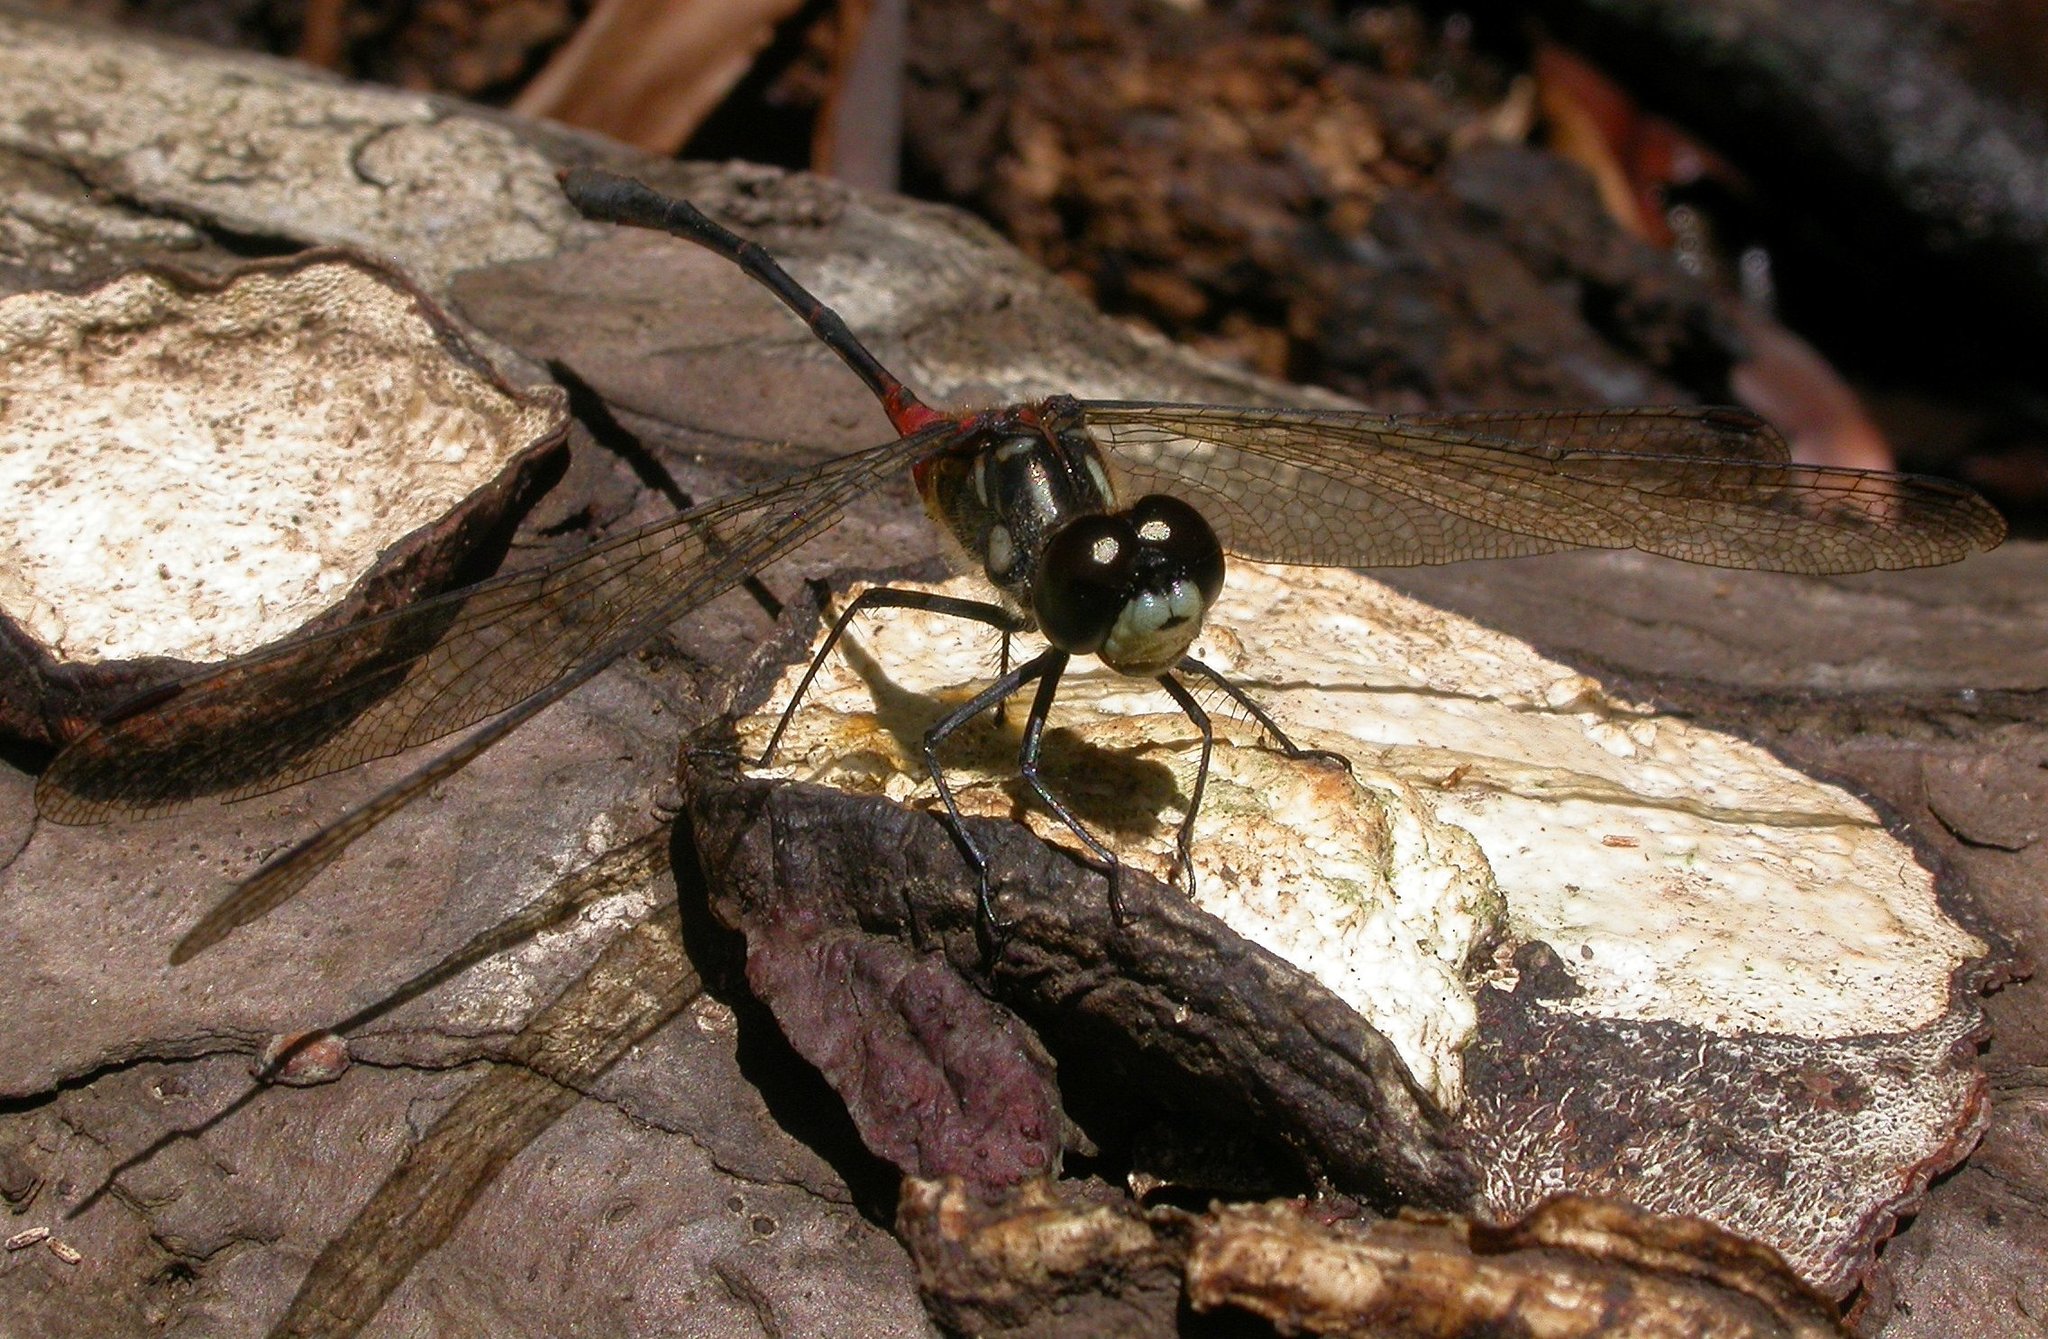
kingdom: Animalia
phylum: Arthropoda
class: Insecta
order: Odonata
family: Libellulidae
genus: Nesogonia
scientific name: Nesogonia blackburni
